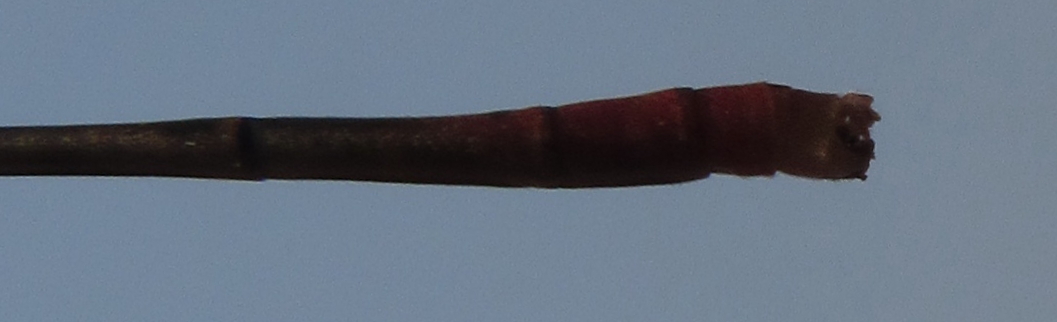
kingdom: Animalia
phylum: Arthropoda
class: Insecta
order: Odonata
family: Coenagrionidae
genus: Agriocnemis
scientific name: Agriocnemis exilis
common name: Little wisp
